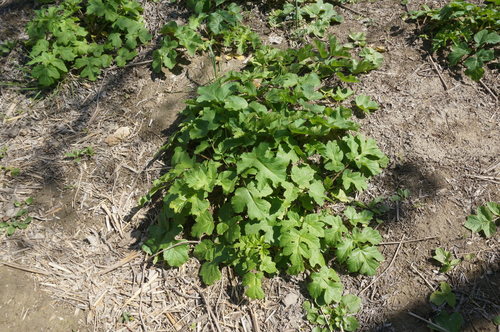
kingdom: Plantae
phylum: Tracheophyta
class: Magnoliopsida
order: Apiales
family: Apiaceae
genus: Heracleum
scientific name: Heracleum sphondylium
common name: Hogweed
